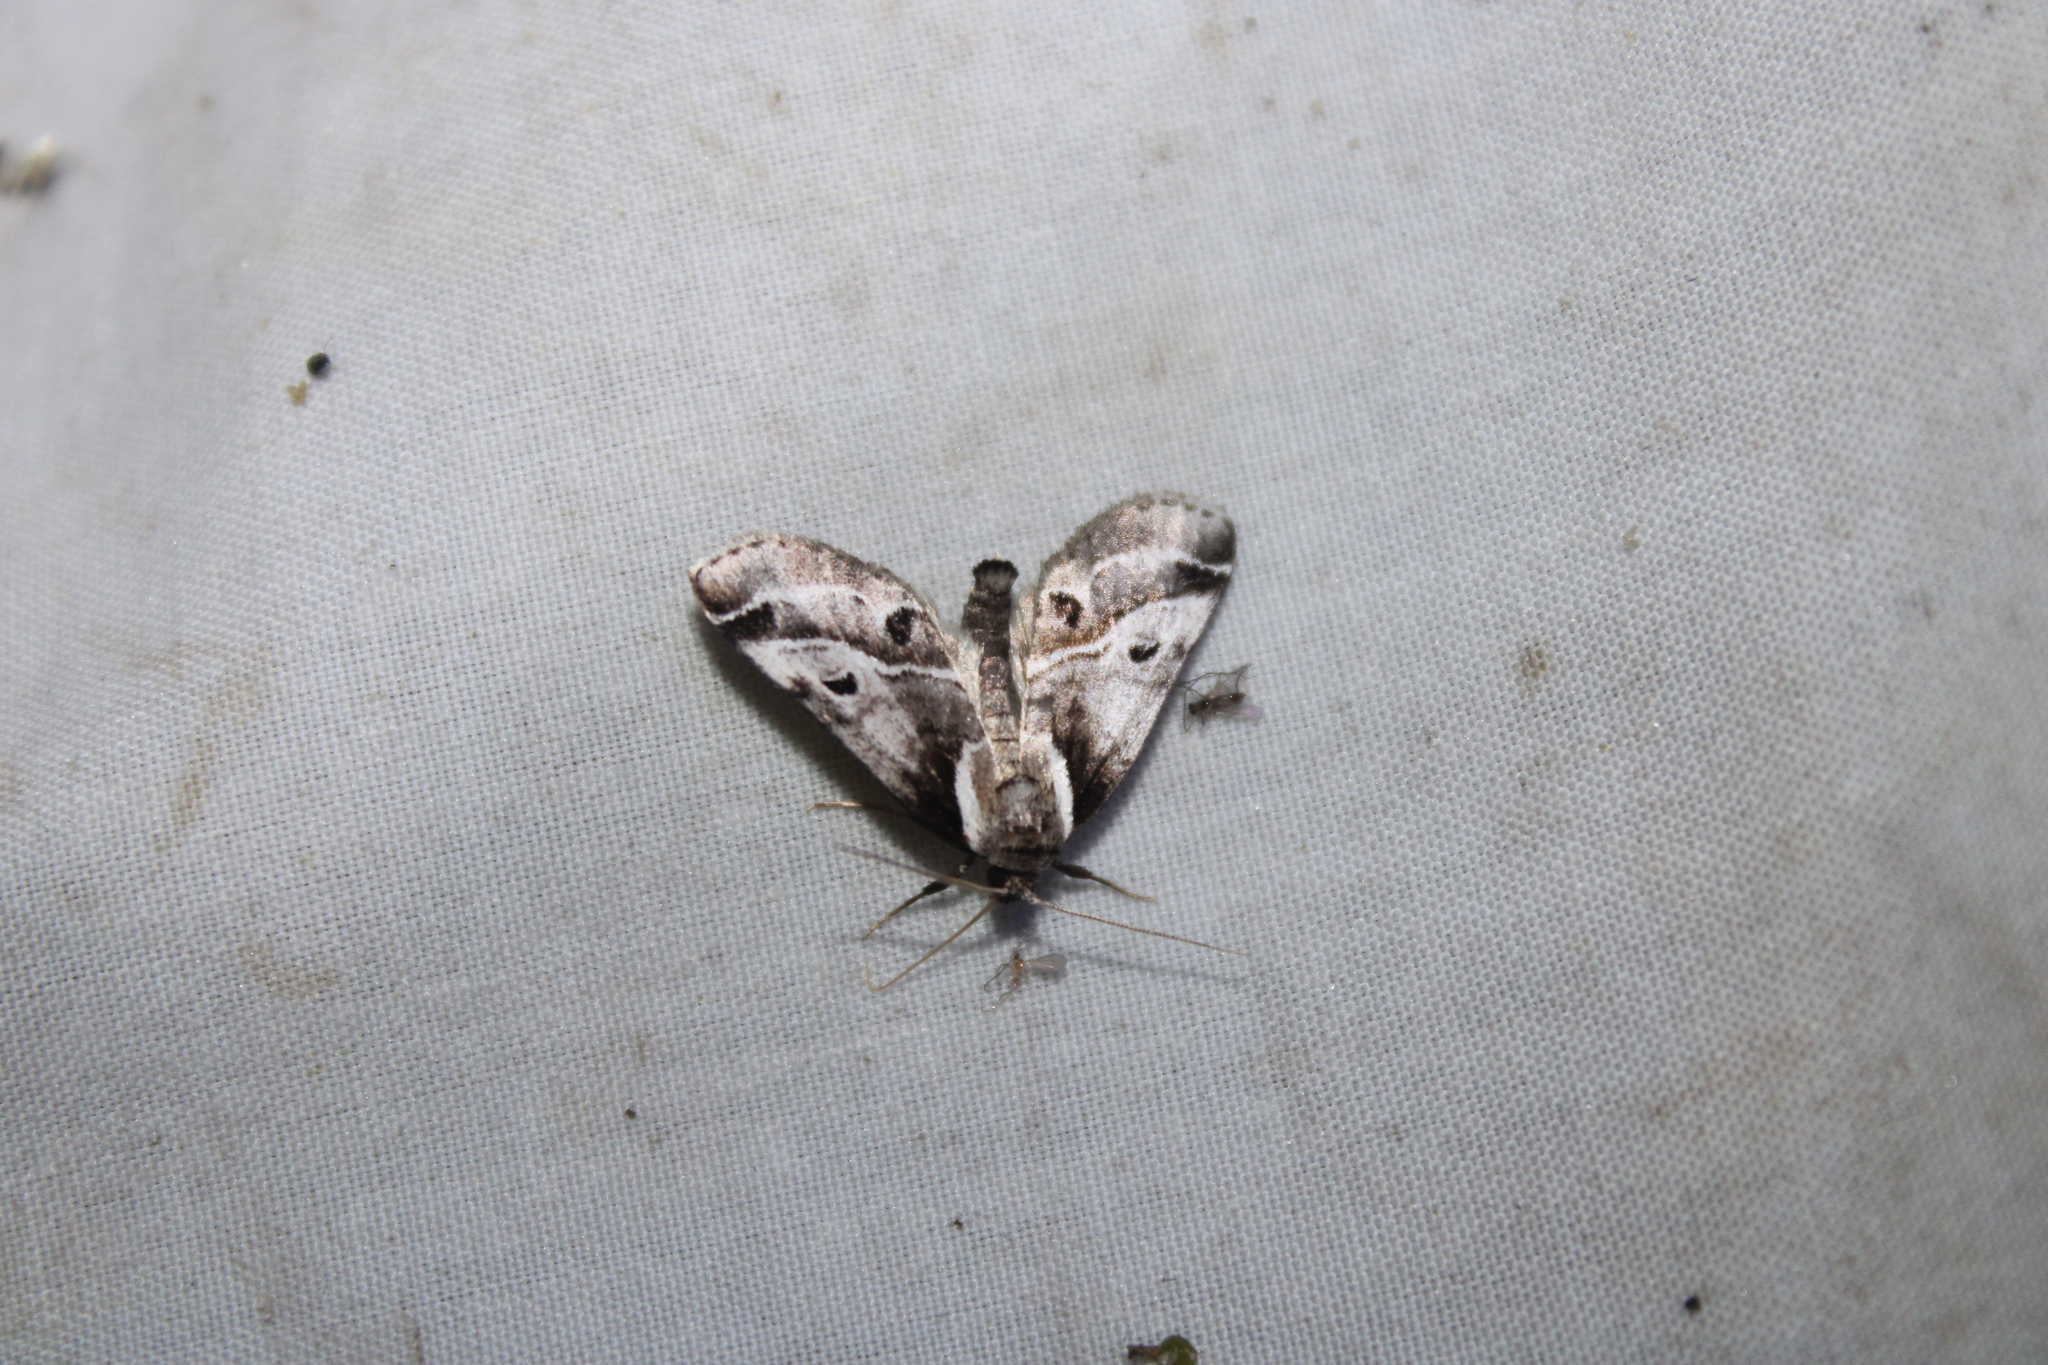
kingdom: Animalia
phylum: Arthropoda
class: Insecta
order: Lepidoptera
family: Nolidae
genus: Baileya
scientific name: Baileya doubledayi
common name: Doubleday's baileya moth
